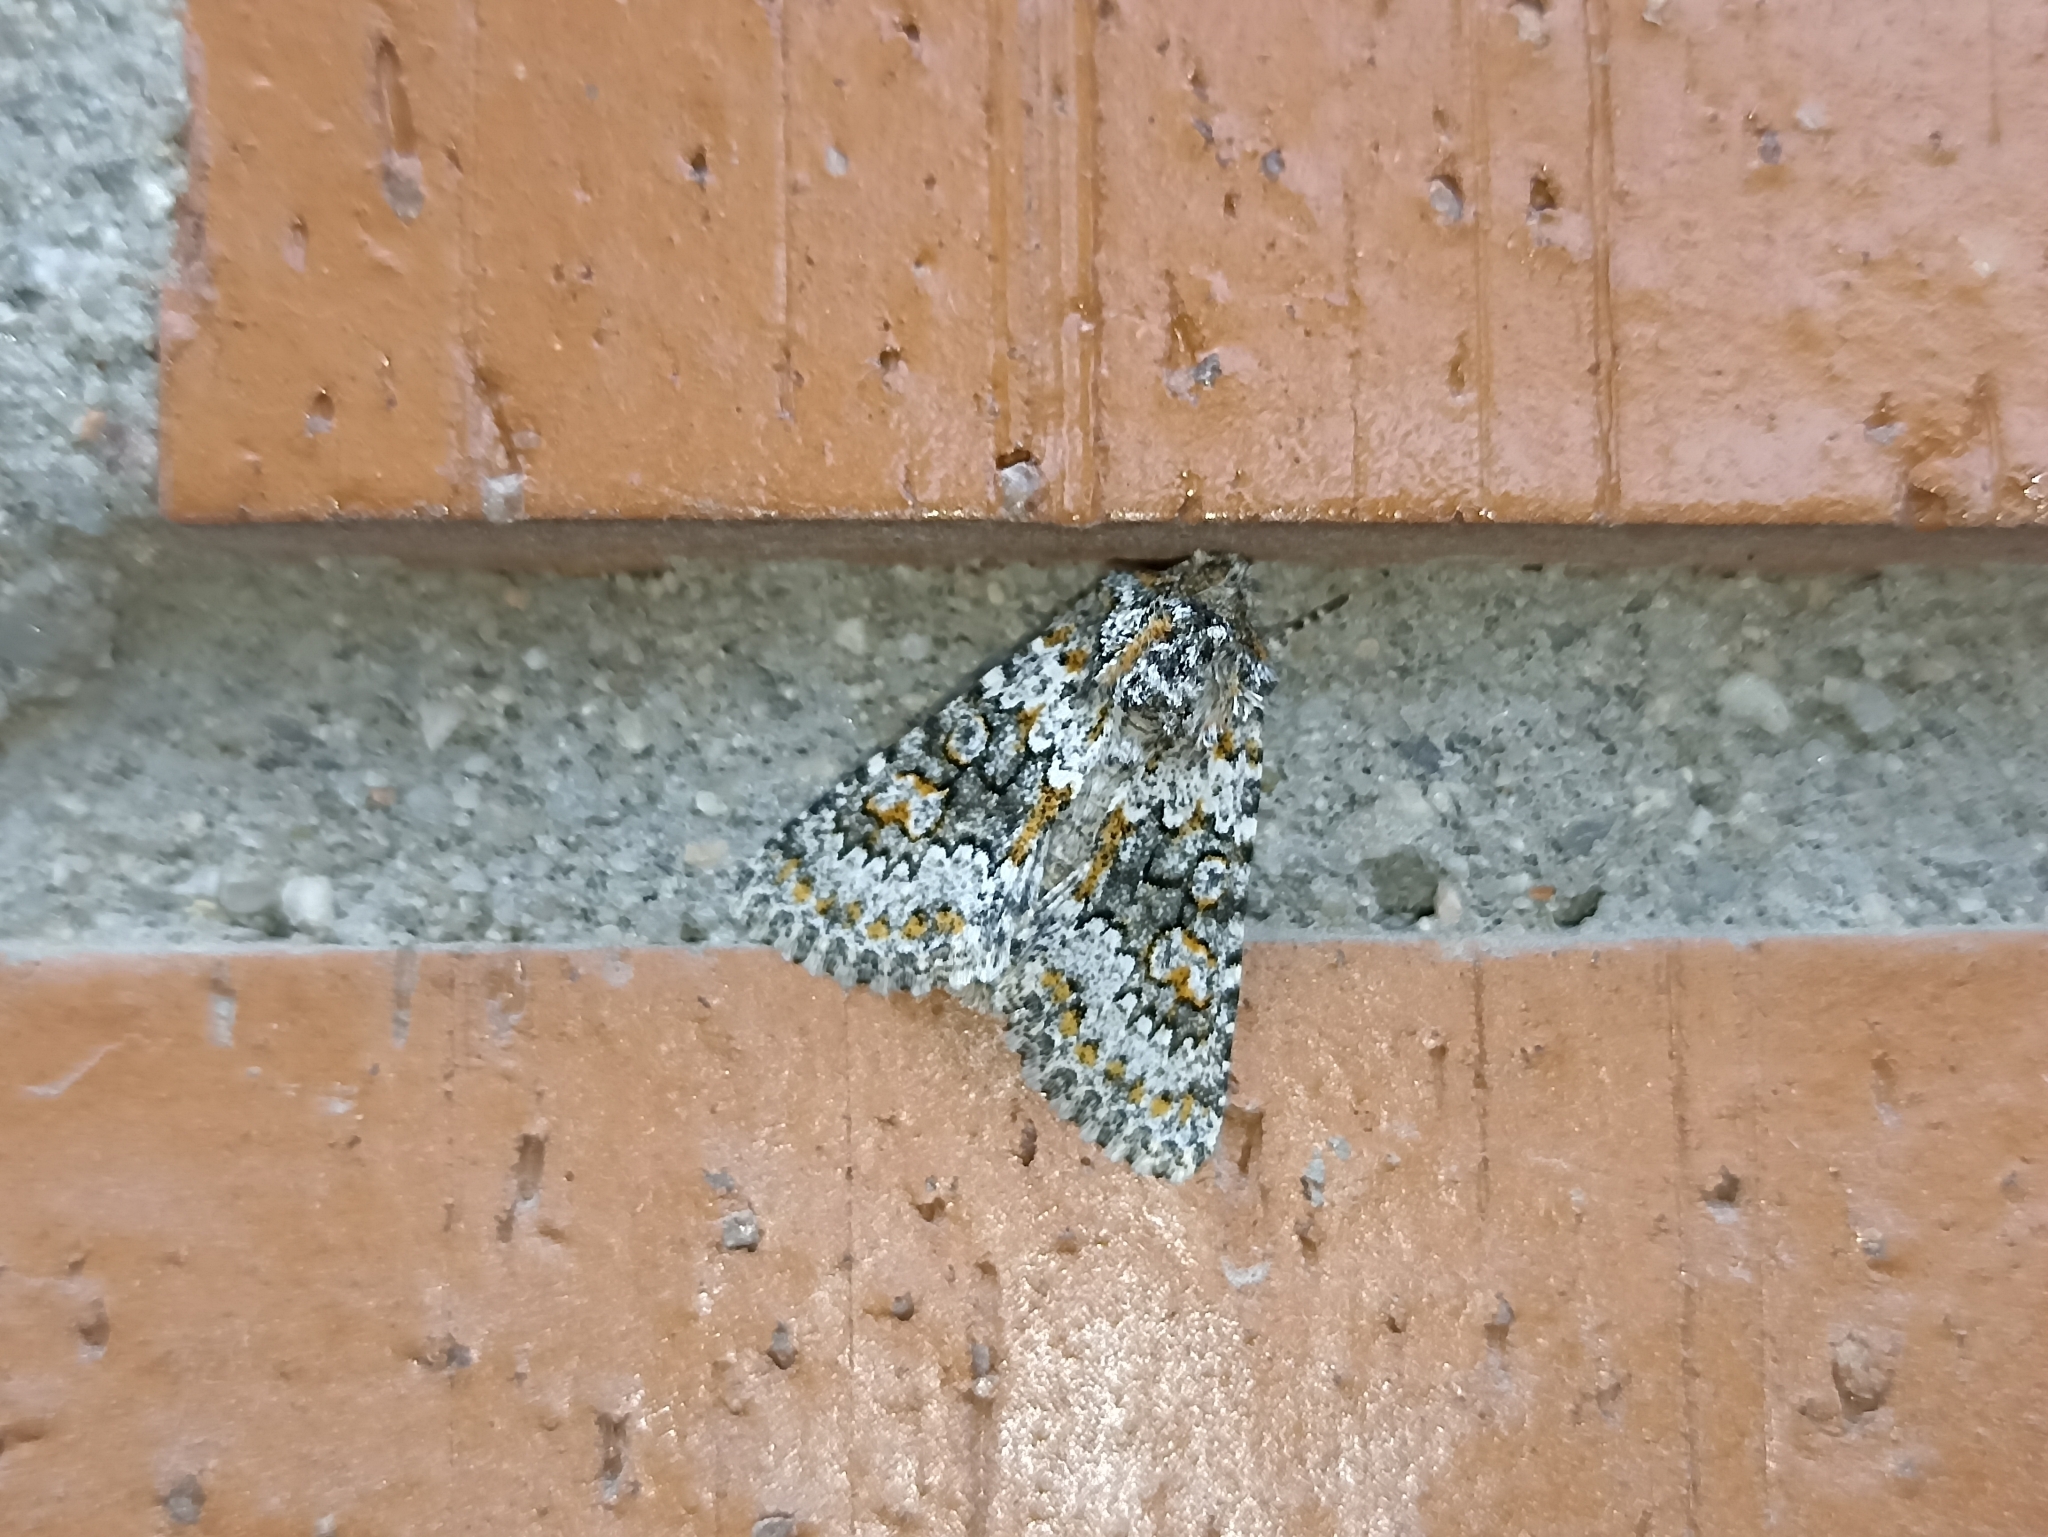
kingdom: Animalia
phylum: Arthropoda
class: Insecta
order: Lepidoptera
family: Noctuidae
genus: Hecatera
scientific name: Hecatera dysodea
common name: Small ranunculus
